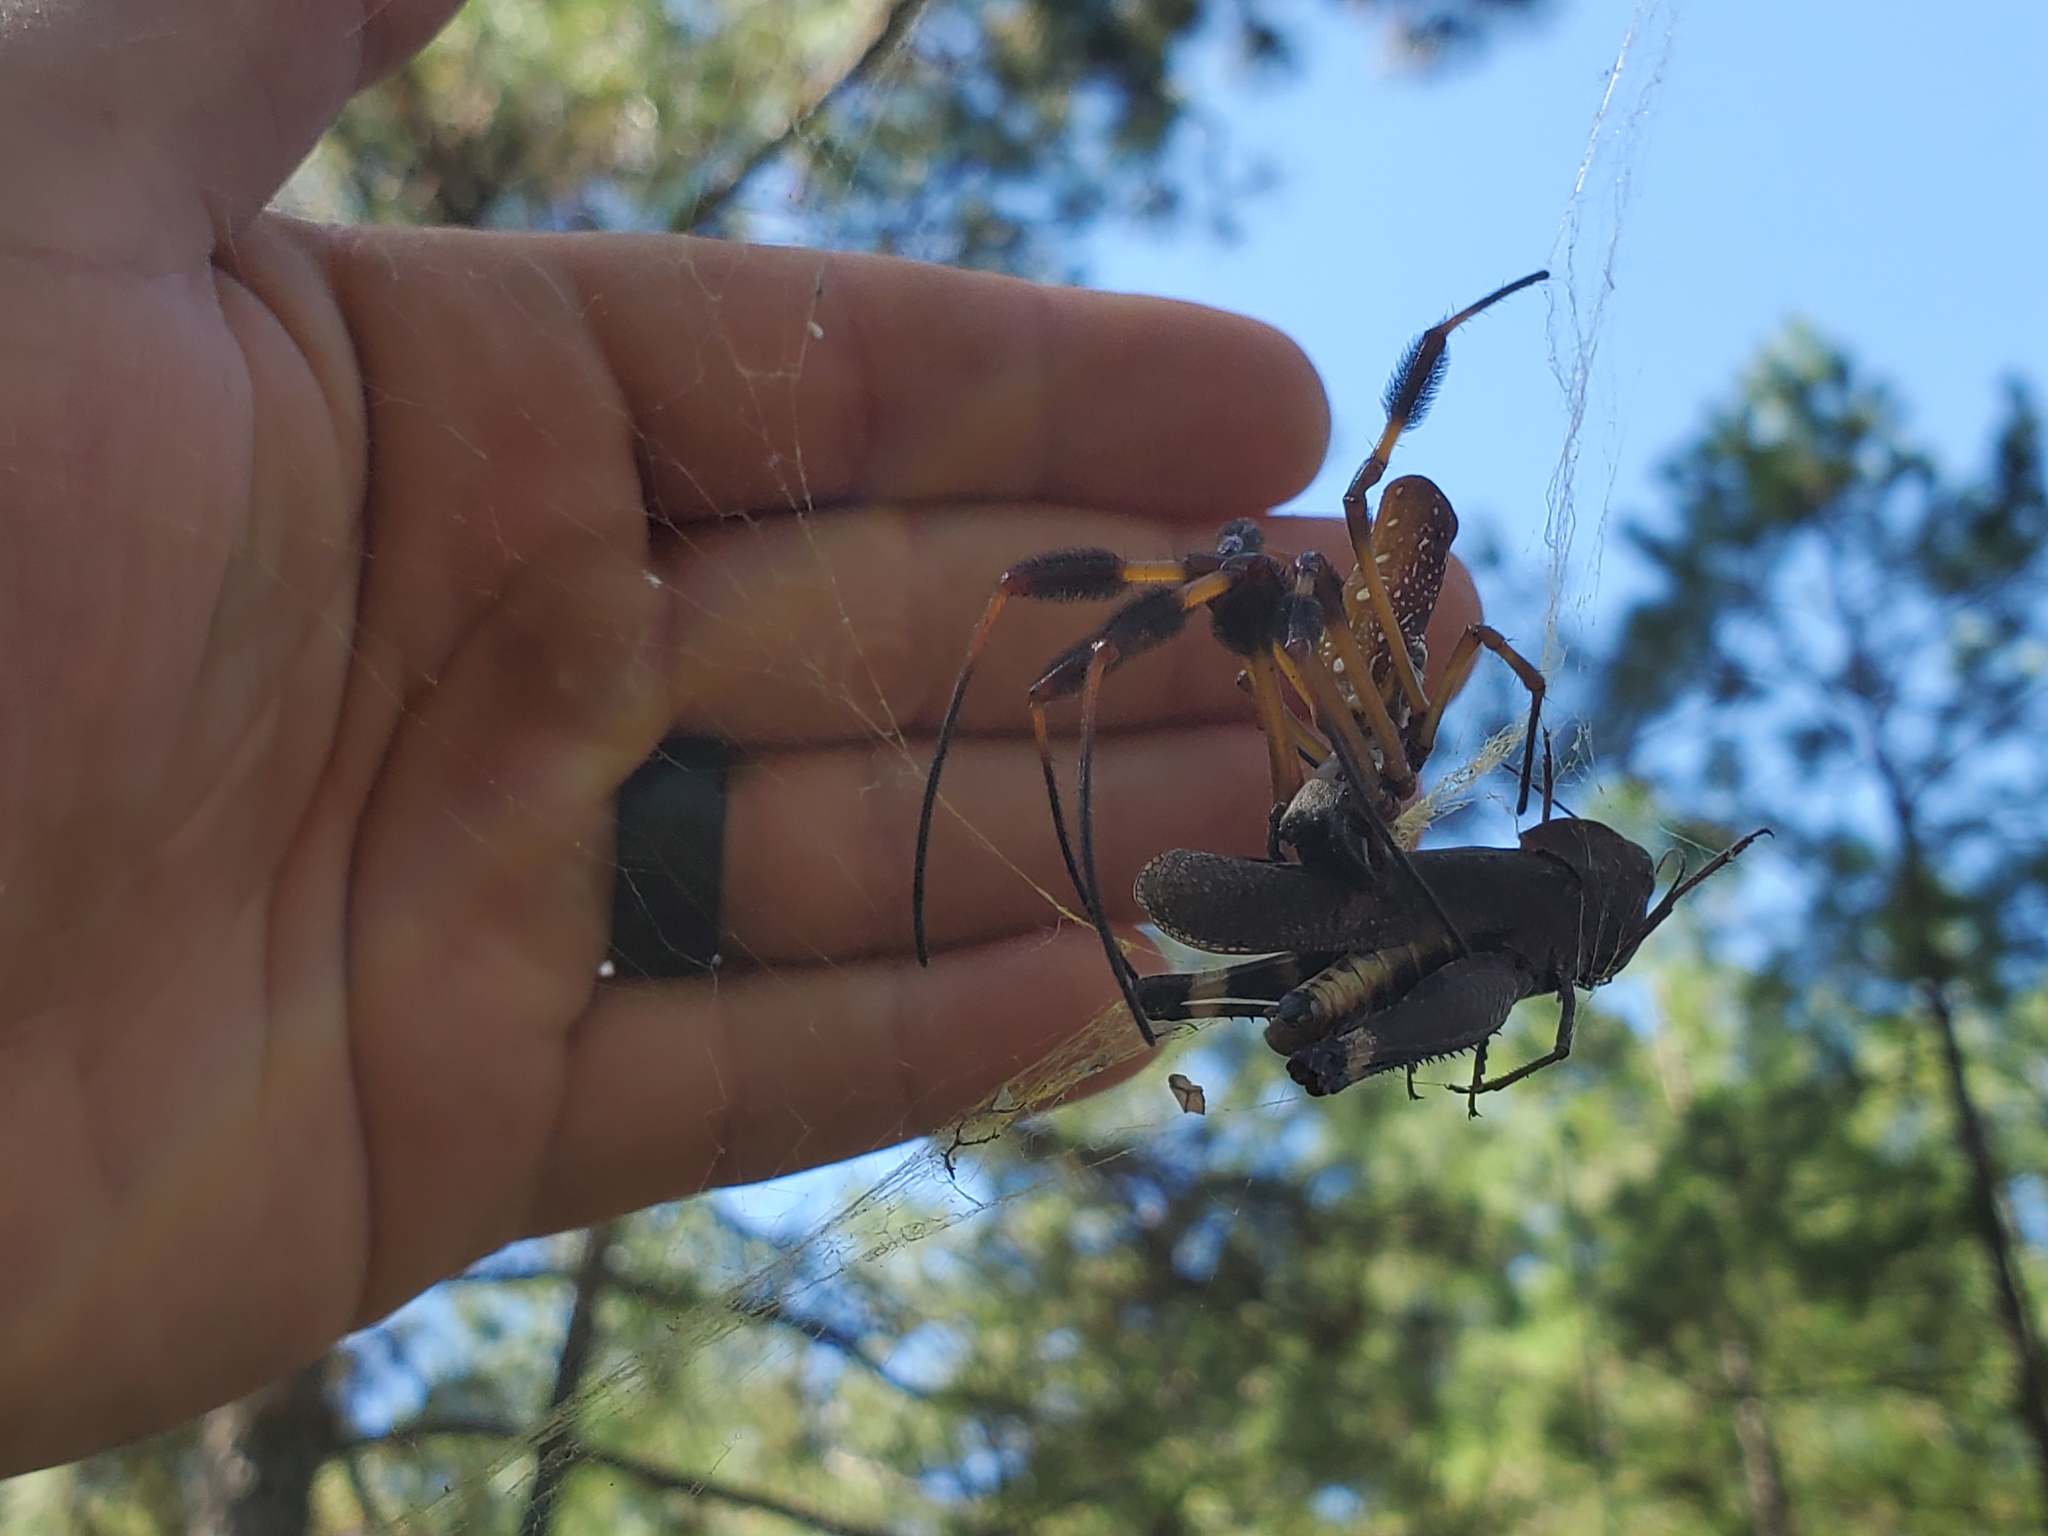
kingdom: Animalia
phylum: Arthropoda
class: Arachnida
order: Araneae
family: Araneidae
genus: Trichonephila
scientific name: Trichonephila clavipes
